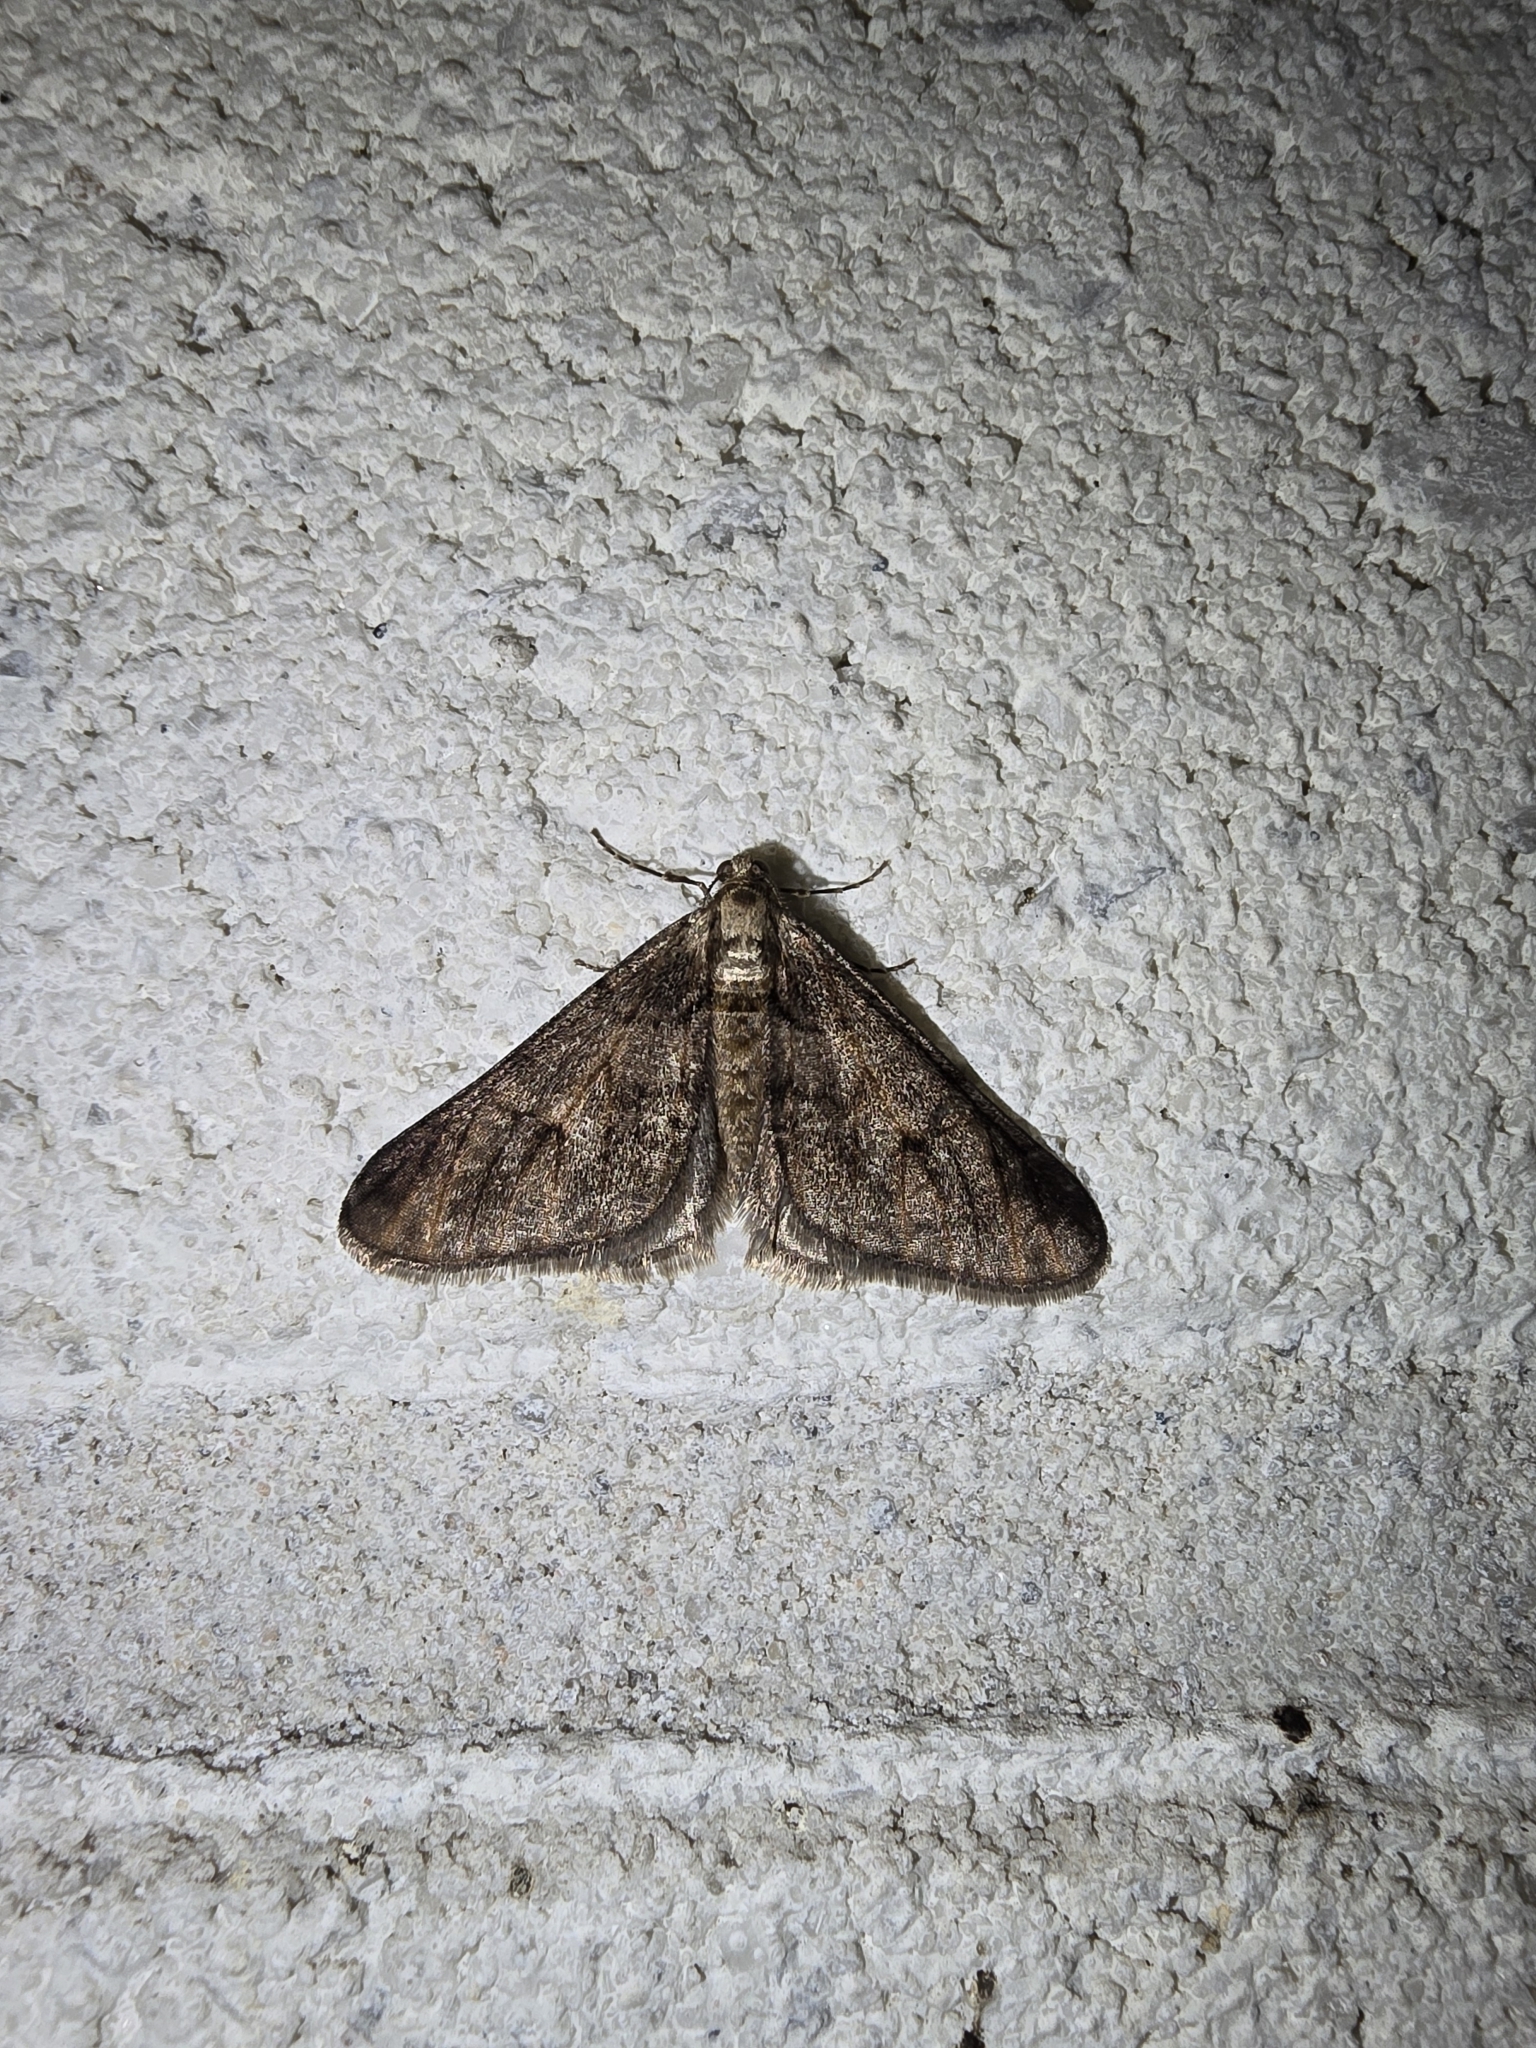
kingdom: Animalia
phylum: Arthropoda
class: Insecta
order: Lepidoptera
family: Geometridae
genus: Agriopis
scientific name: Agriopis leucophaearia
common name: Spring usher
